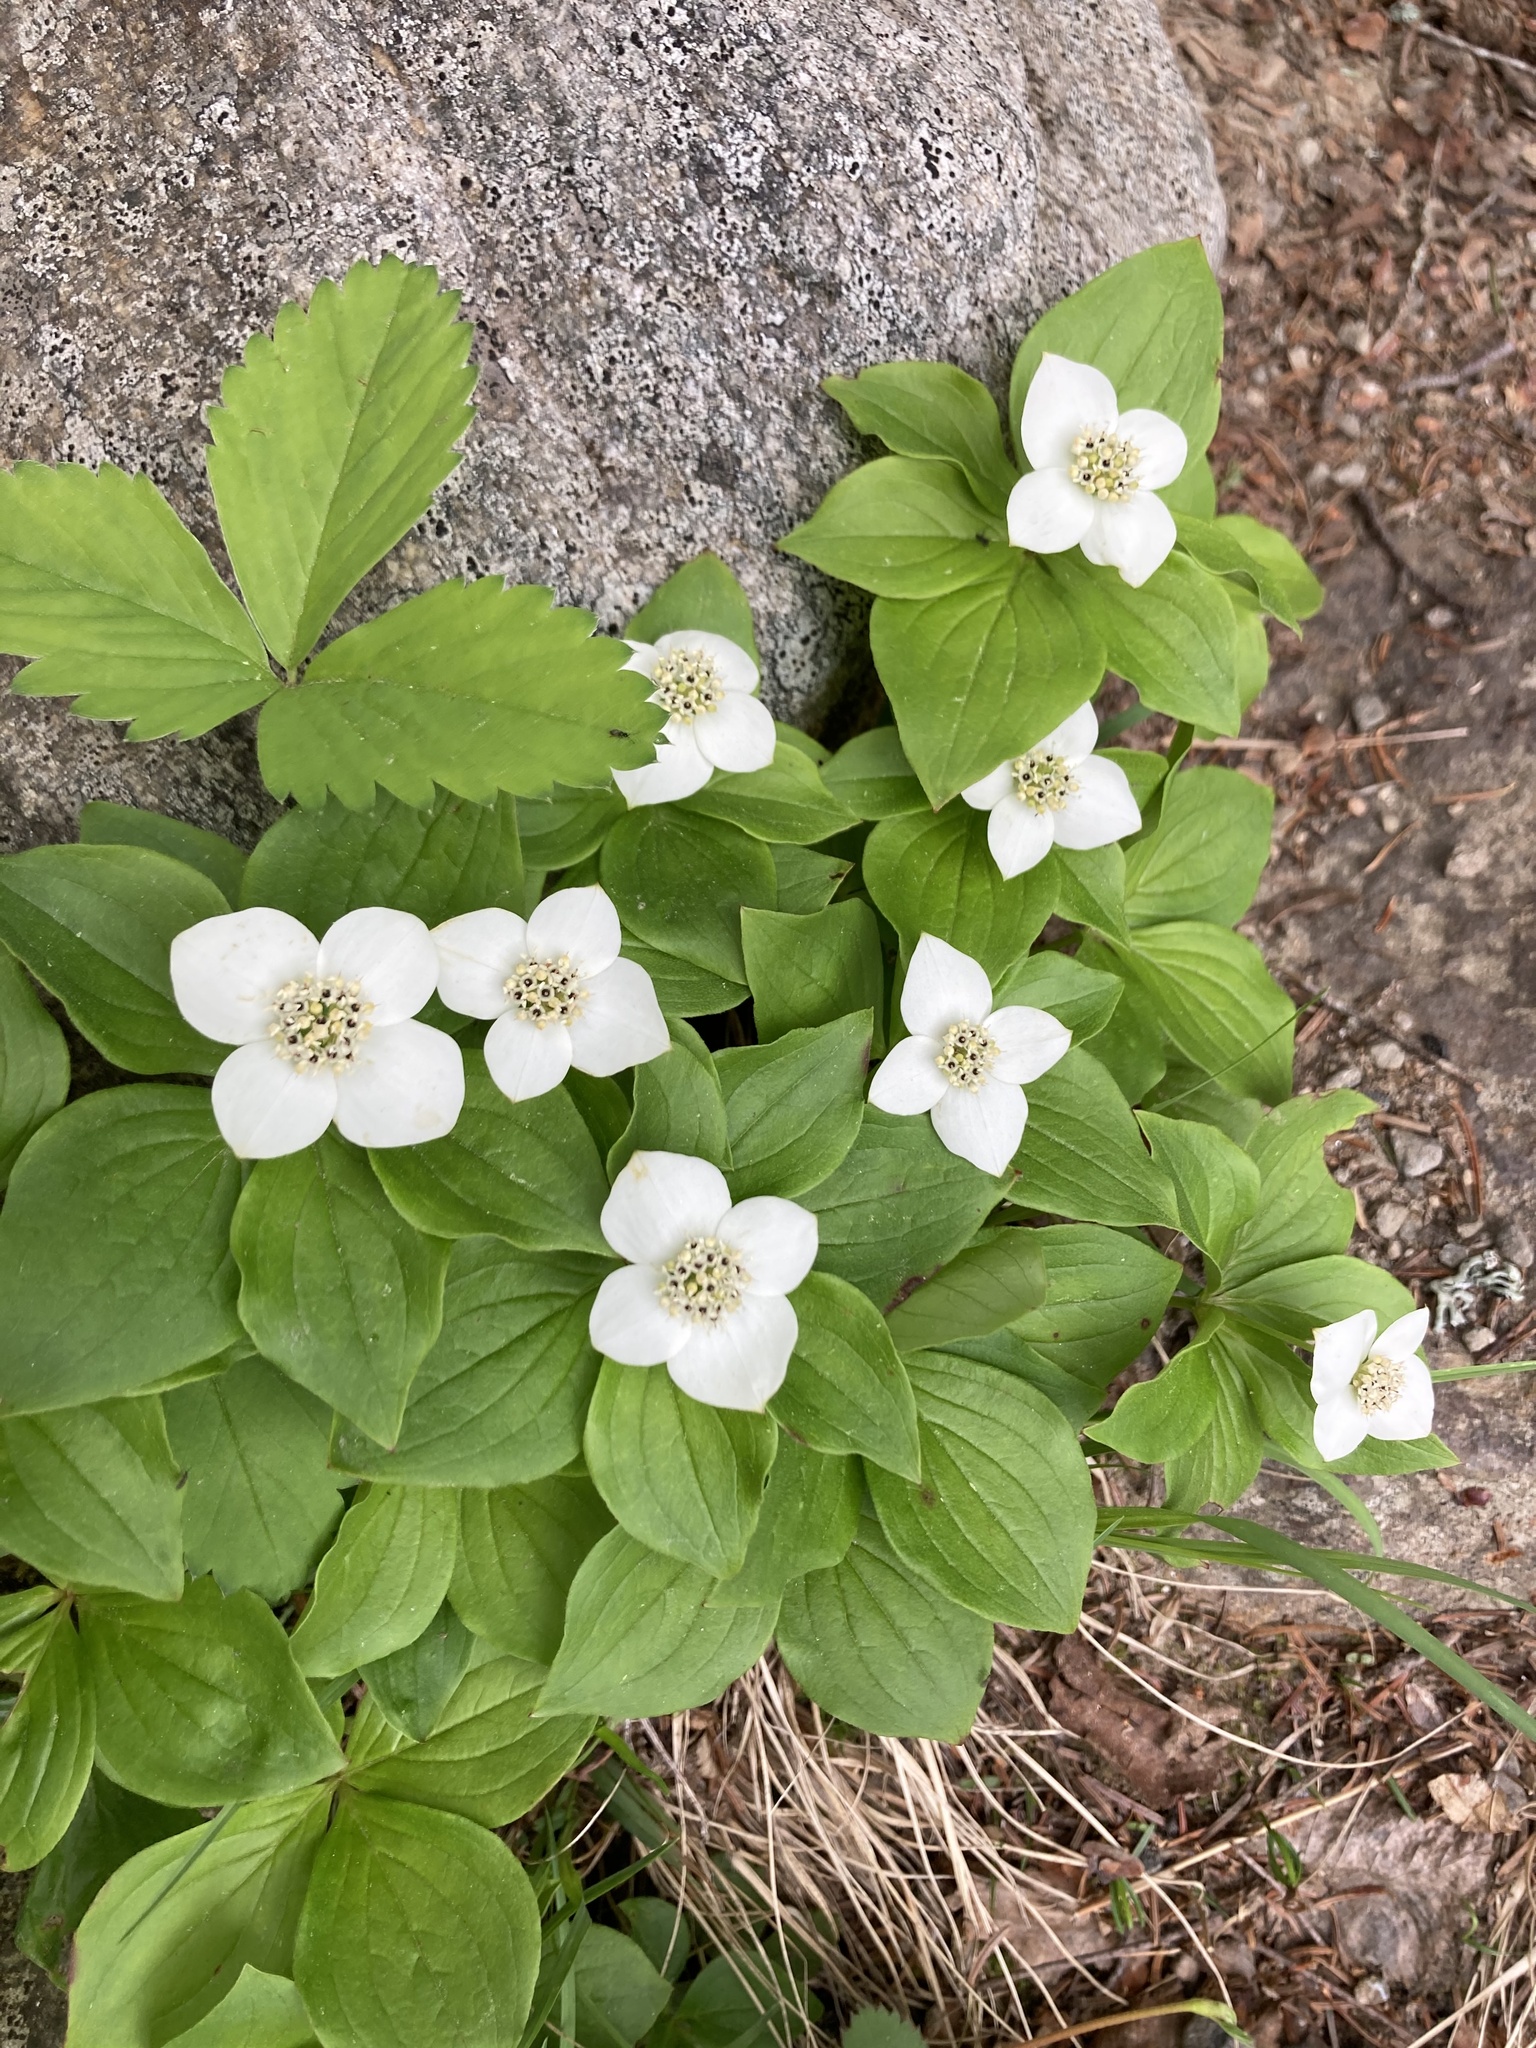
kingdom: Plantae
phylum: Tracheophyta
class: Magnoliopsida
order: Cornales
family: Cornaceae
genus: Cornus
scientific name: Cornus canadensis
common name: Creeping dogwood
